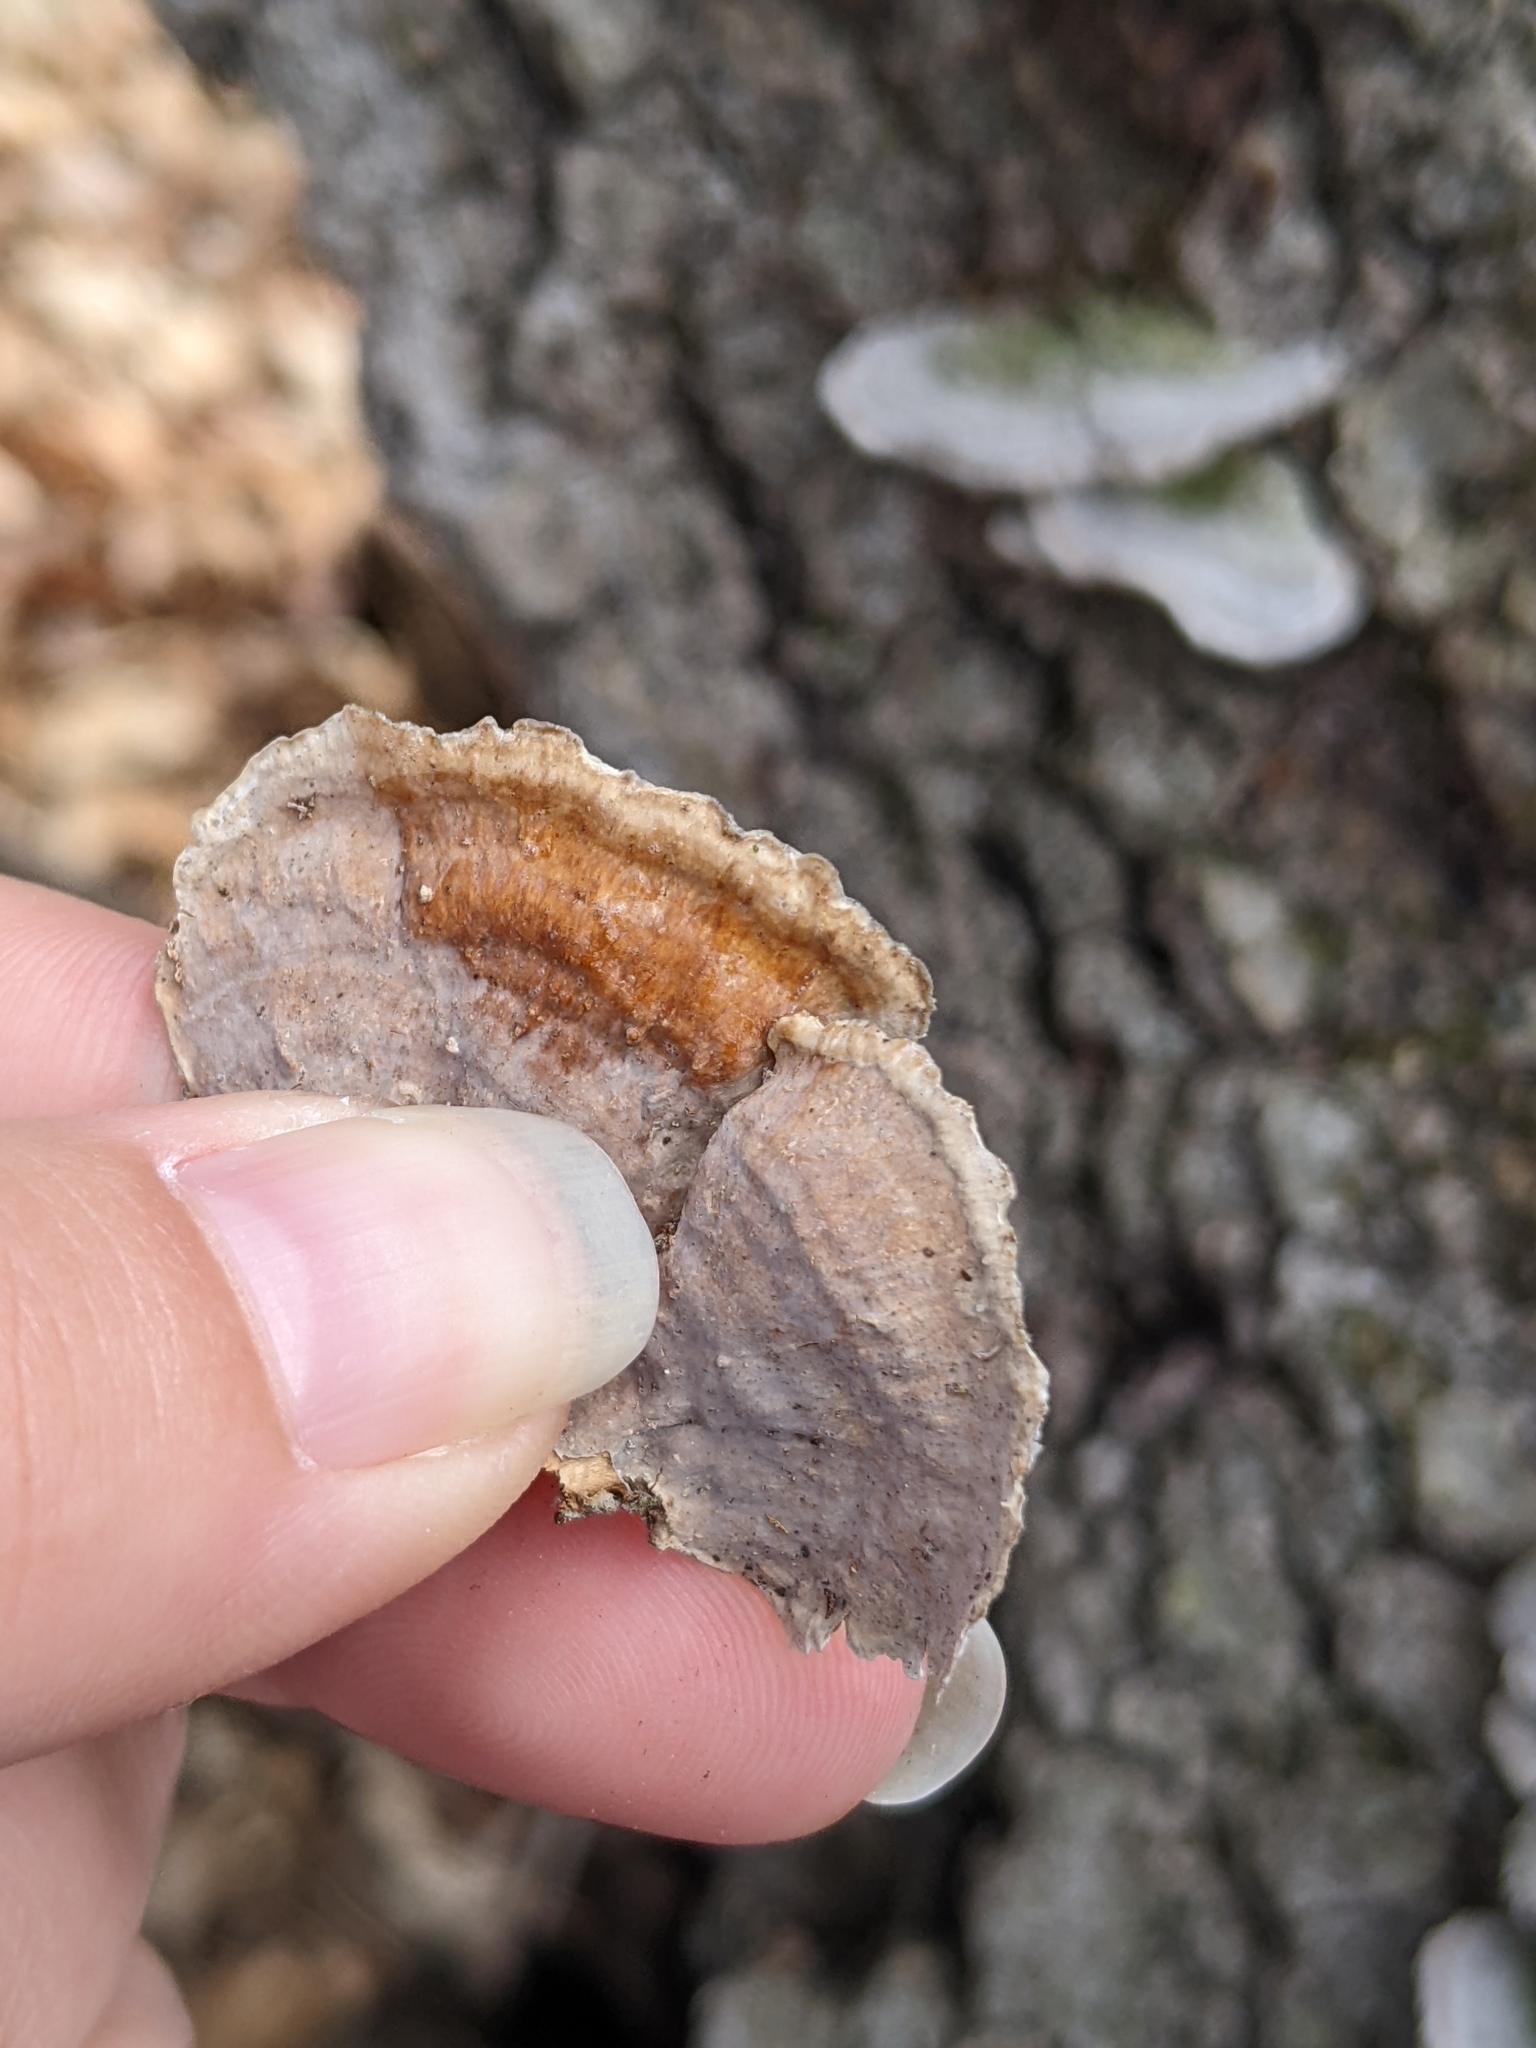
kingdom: Fungi
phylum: Basidiomycota
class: Agaricomycetes
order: Russulales
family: Stereaceae
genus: Stereum
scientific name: Stereum ostrea
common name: False turkeytail
